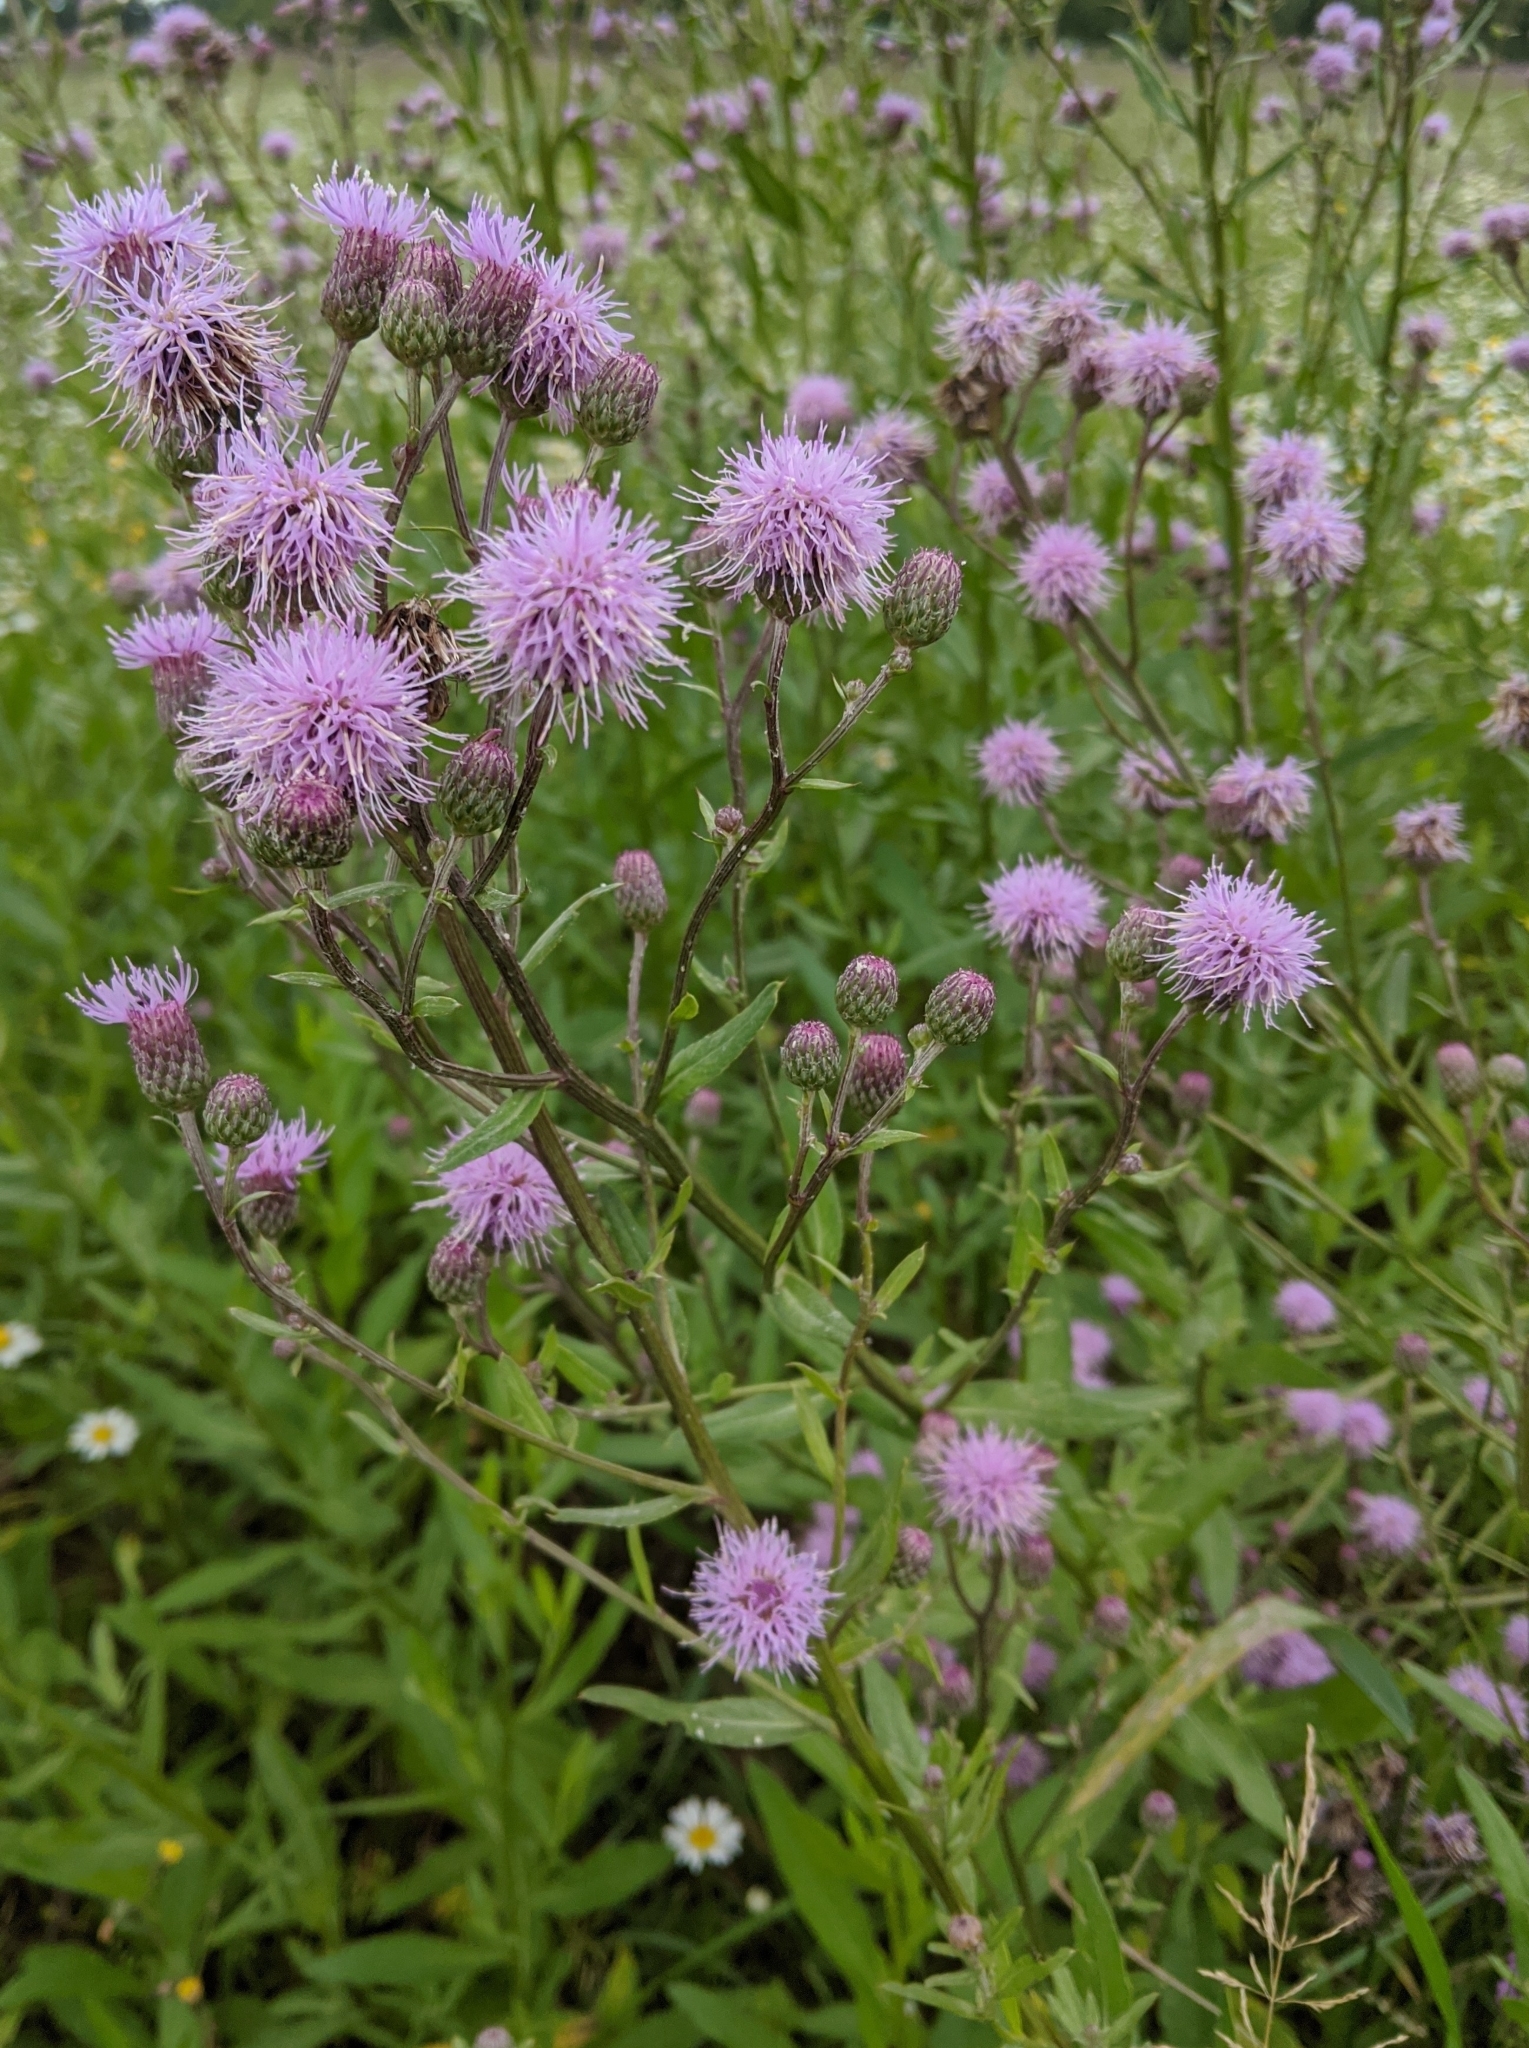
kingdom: Plantae
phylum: Tracheophyta
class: Magnoliopsida
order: Asterales
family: Asteraceae
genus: Cirsium
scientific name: Cirsium arvense
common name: Creeping thistle
